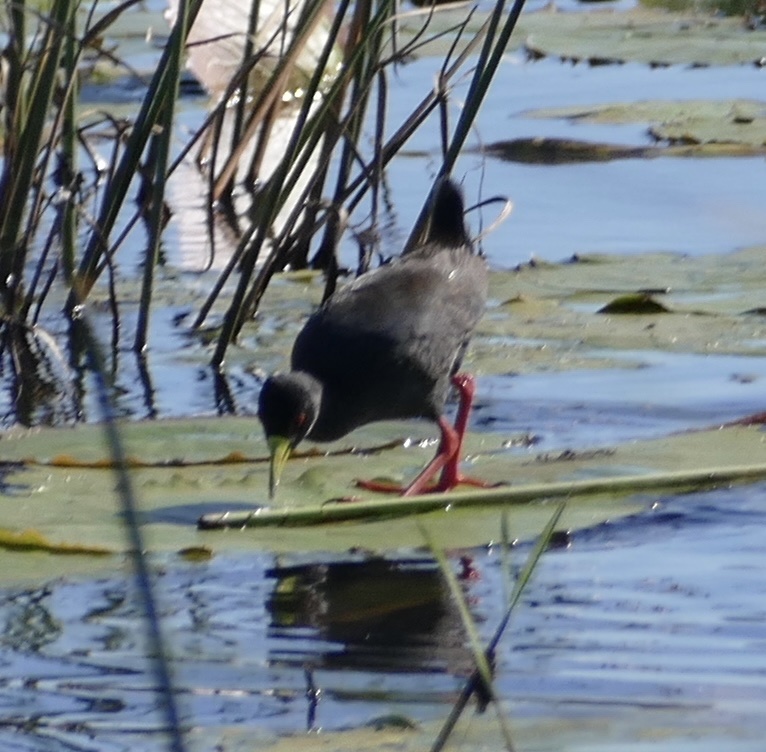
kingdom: Animalia
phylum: Chordata
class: Aves
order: Gruiformes
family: Rallidae
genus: Amaurornis
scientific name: Amaurornis flavirostra
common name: Black crake
